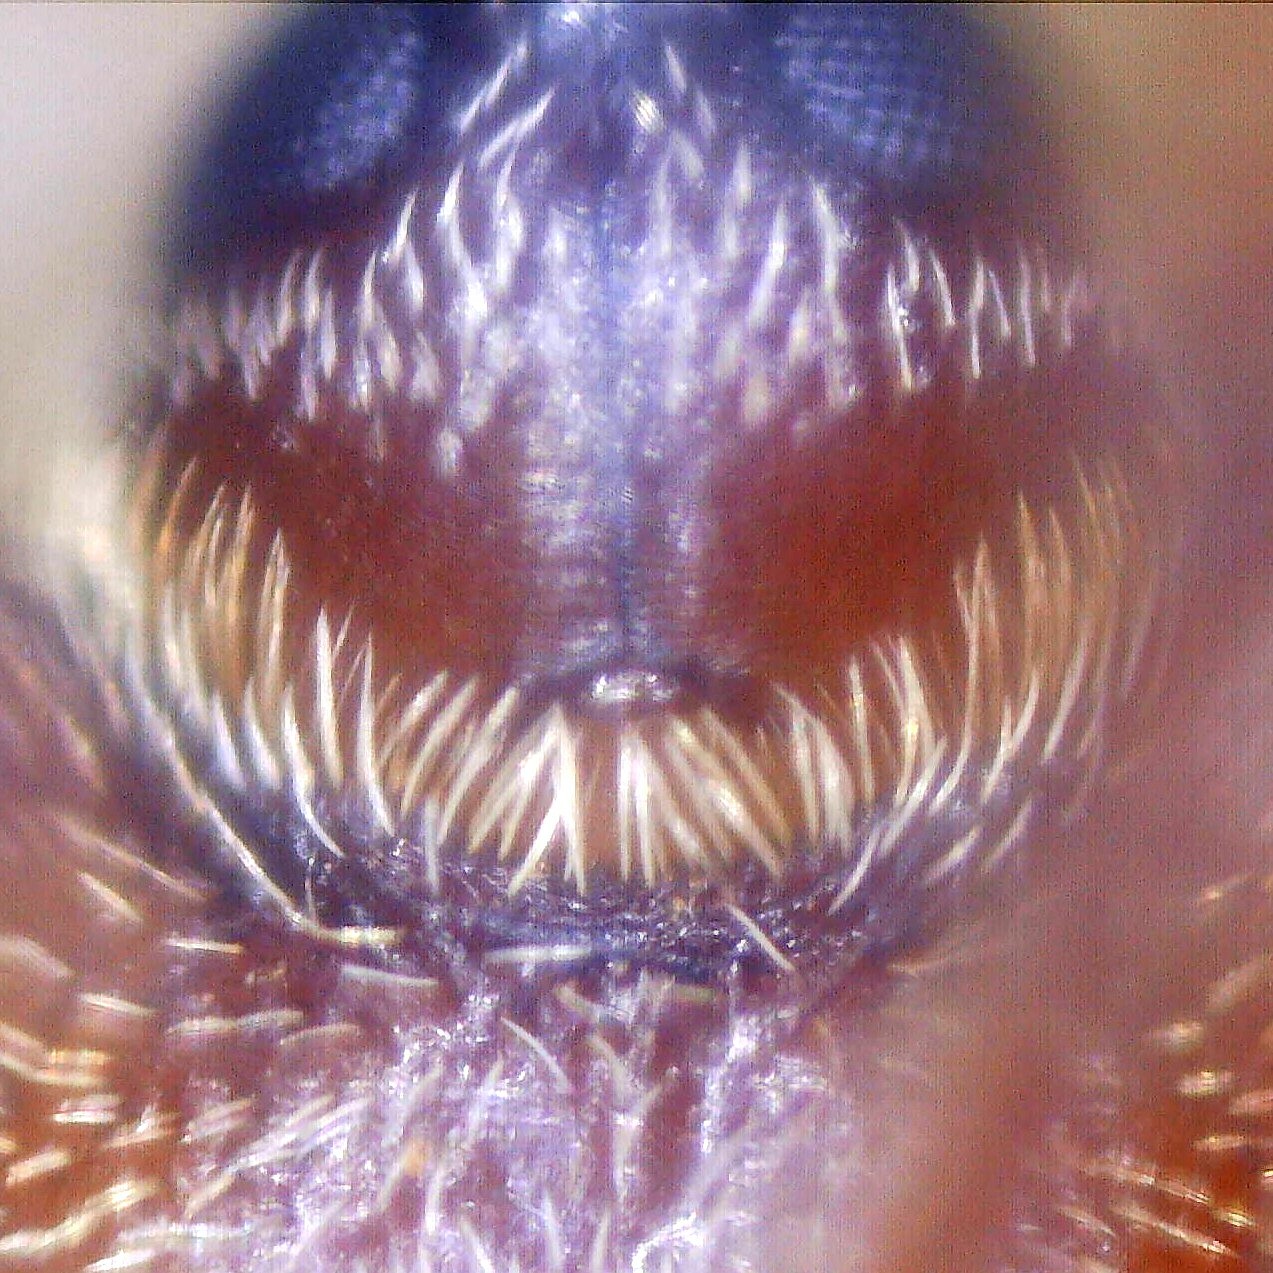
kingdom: Animalia
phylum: Arthropoda
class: Insecta
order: Coleoptera
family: Curculionidae
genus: Dorytomus
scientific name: Dorytomus longimanus
